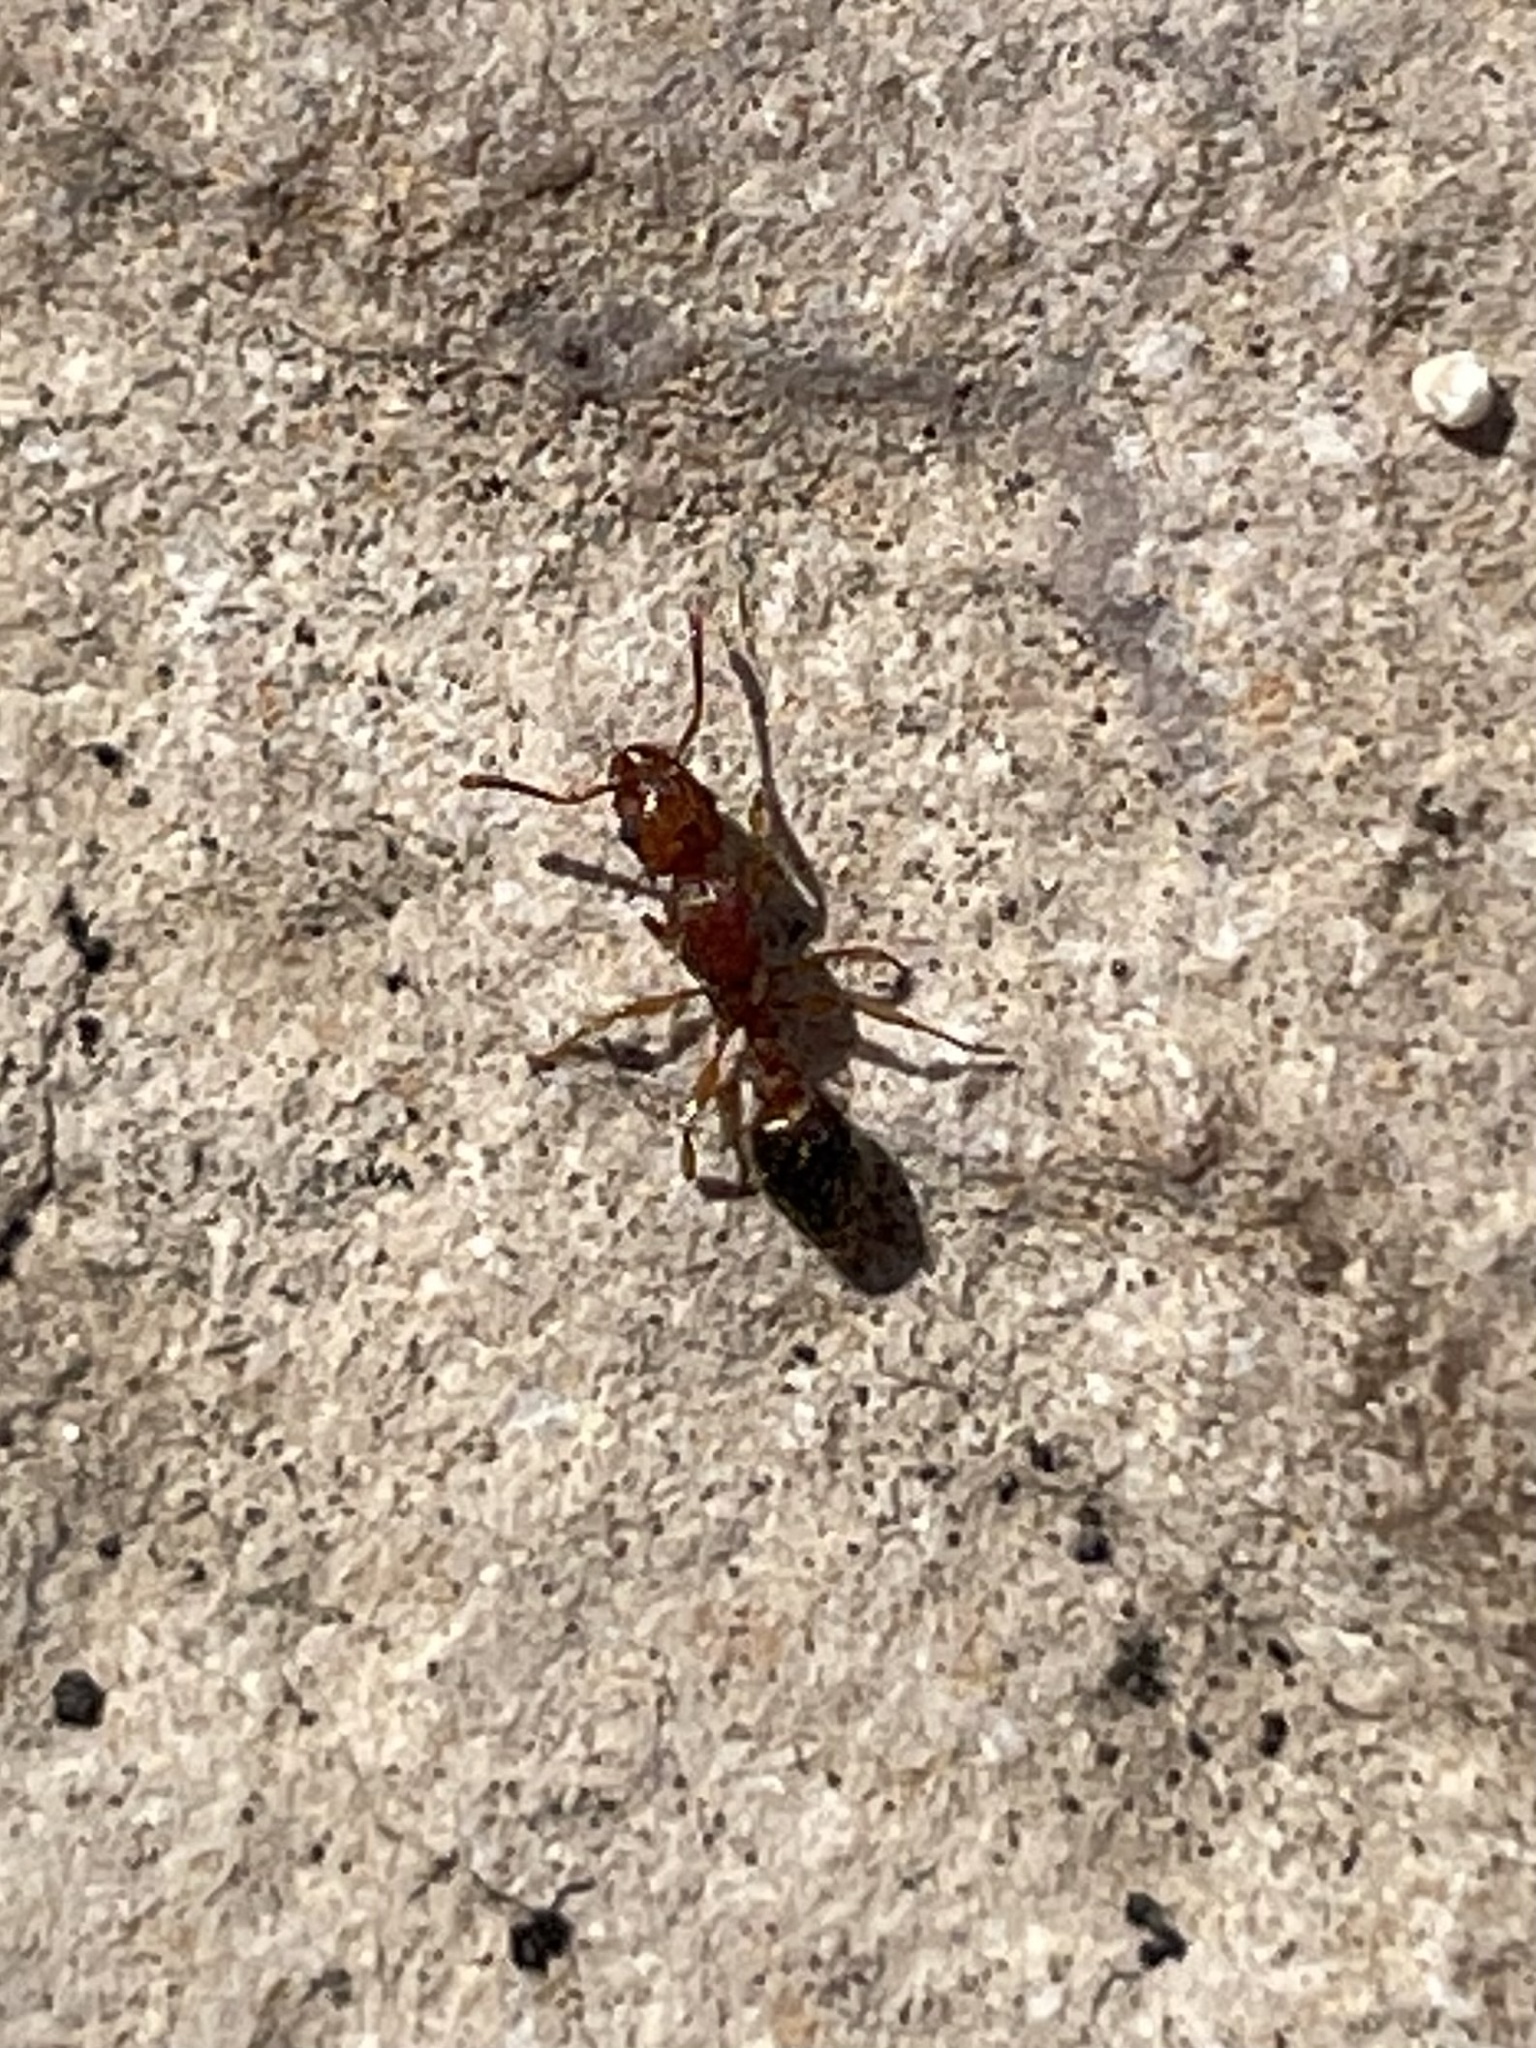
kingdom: Animalia
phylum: Arthropoda
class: Insecta
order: Hymenoptera
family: Formicidae
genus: Tetramorium
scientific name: Tetramorium bicarinatum
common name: Guinea ant
